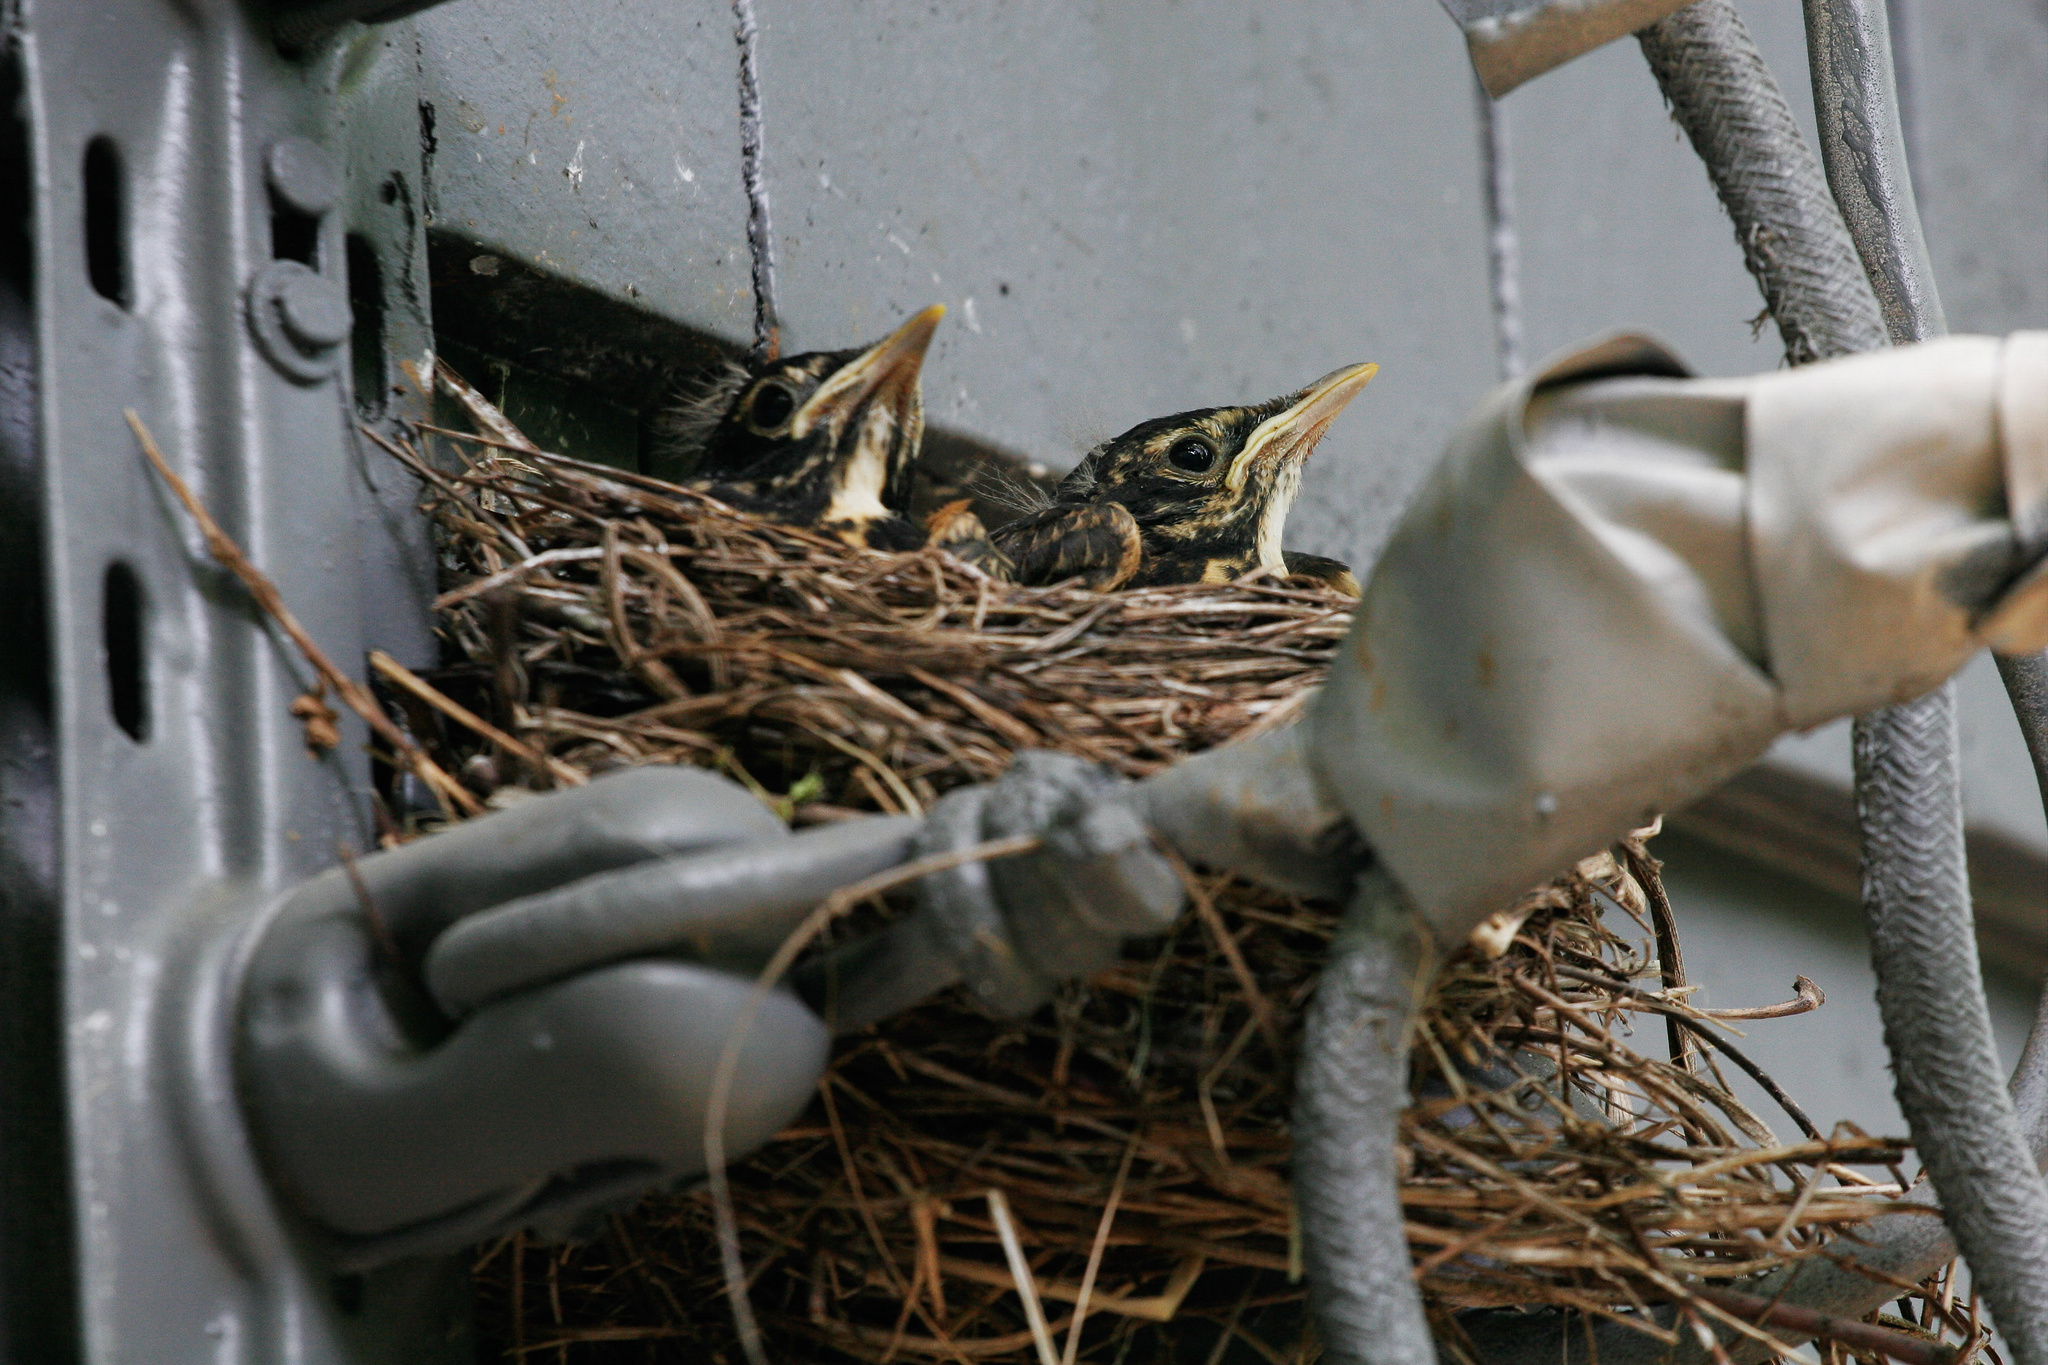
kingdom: Animalia
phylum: Chordata
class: Aves
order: Passeriformes
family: Turdidae
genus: Turdus
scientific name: Turdus migratorius
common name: American robin
